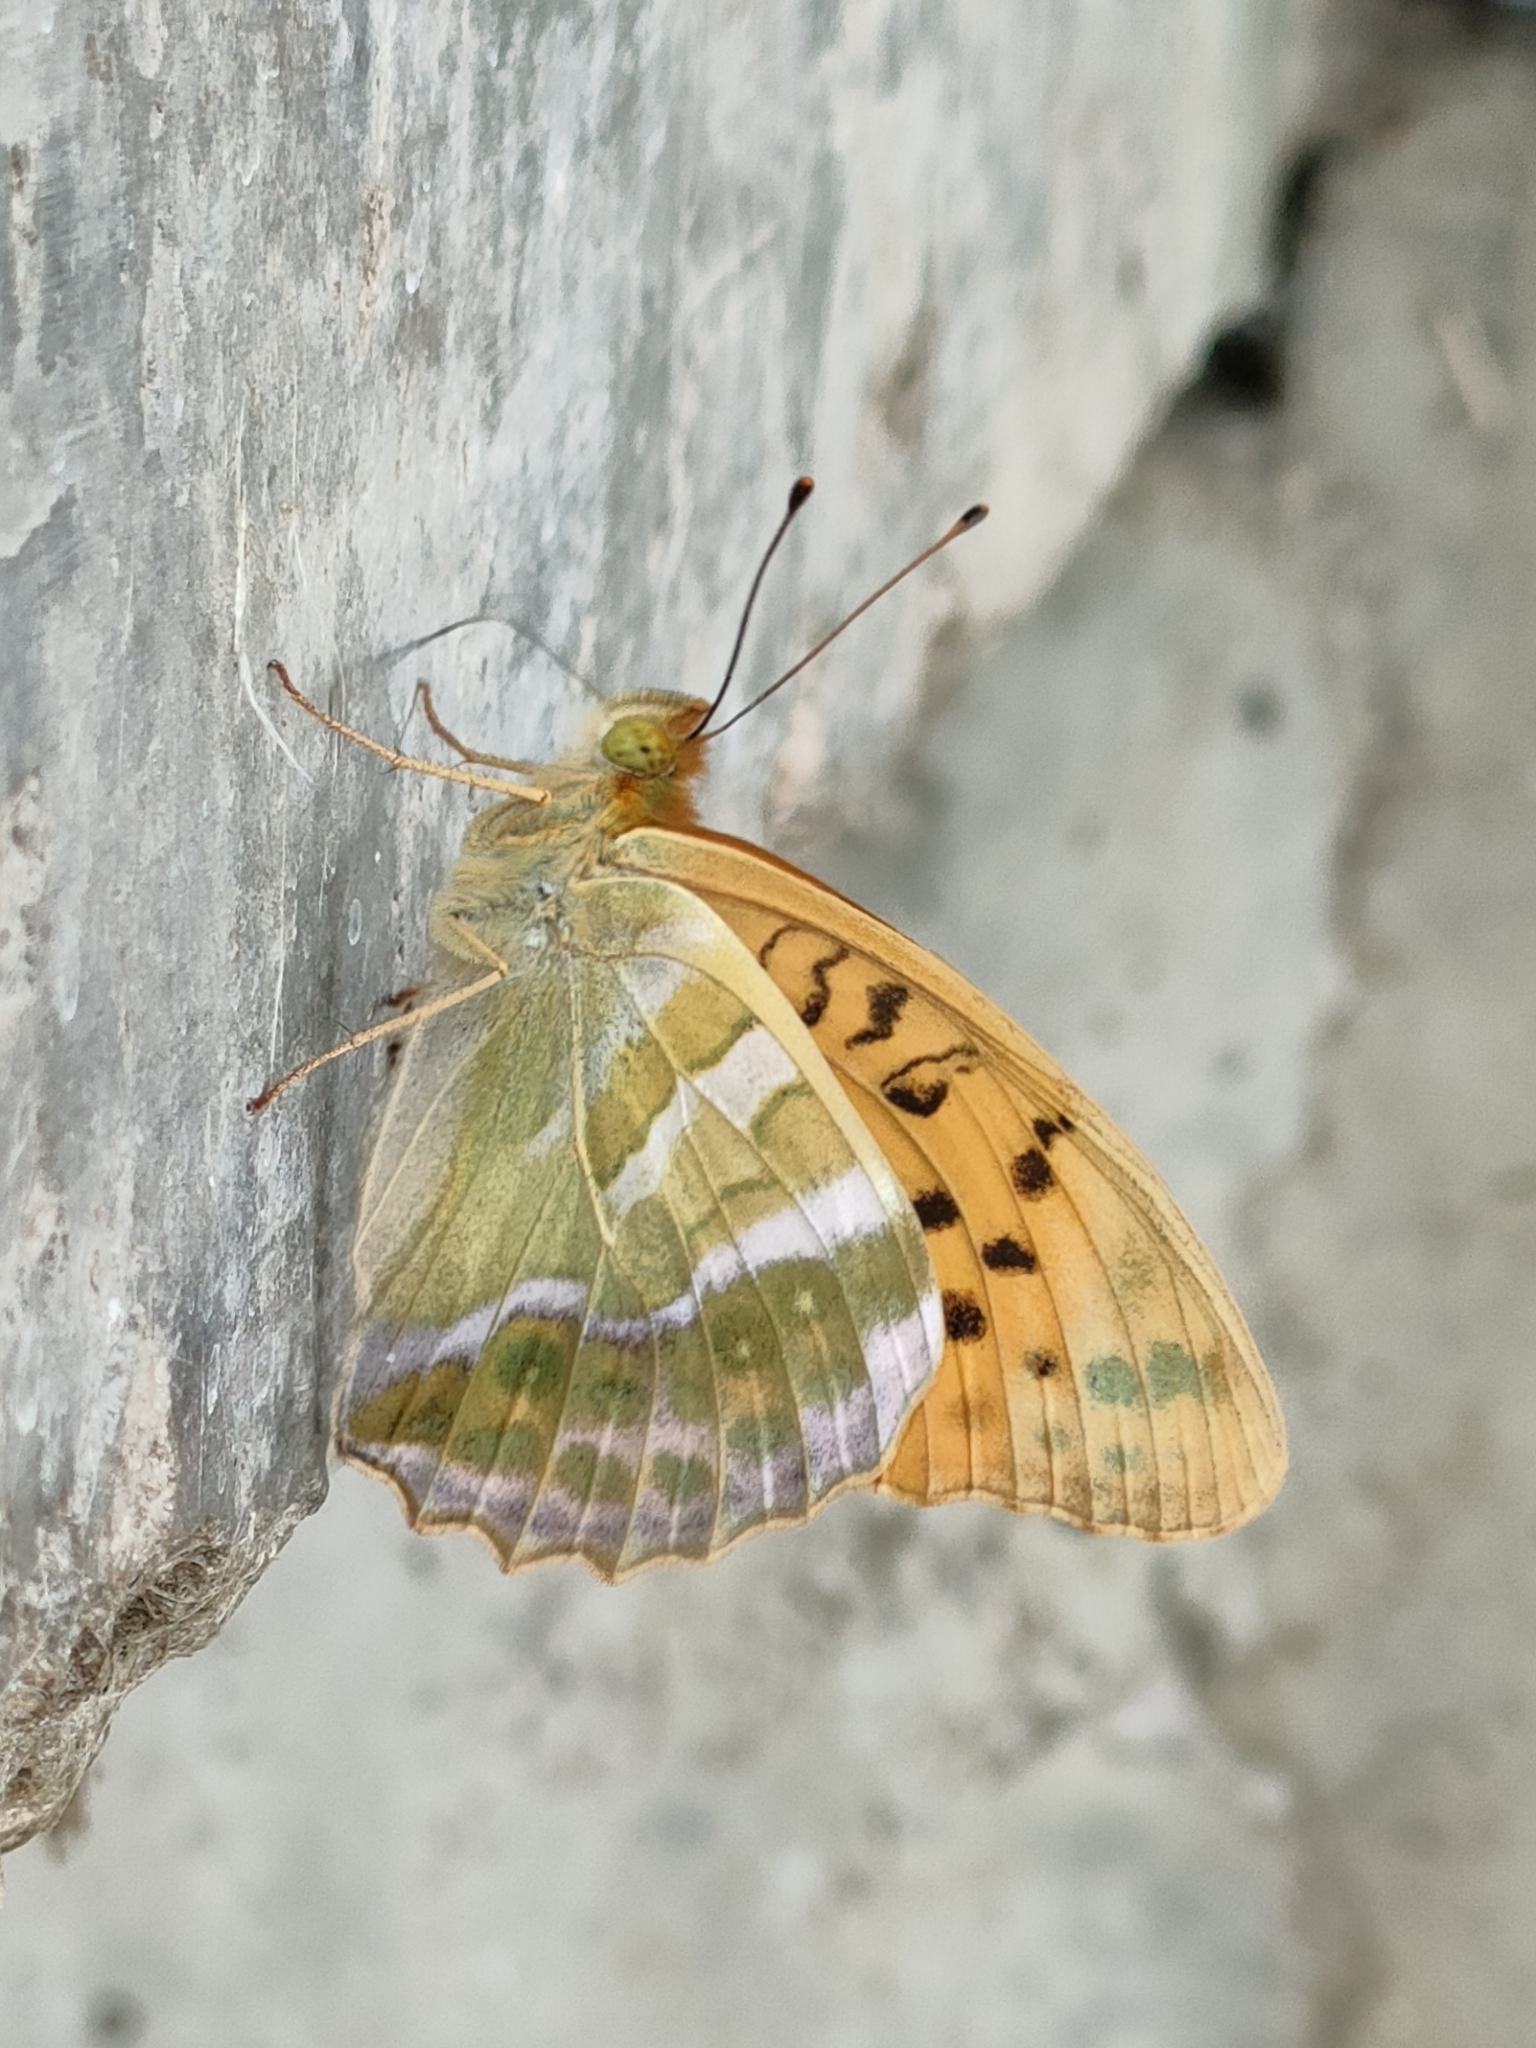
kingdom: Animalia
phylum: Arthropoda
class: Insecta
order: Lepidoptera
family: Nymphalidae
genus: Argynnis
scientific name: Argynnis paphia
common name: Silver-washed fritillary
